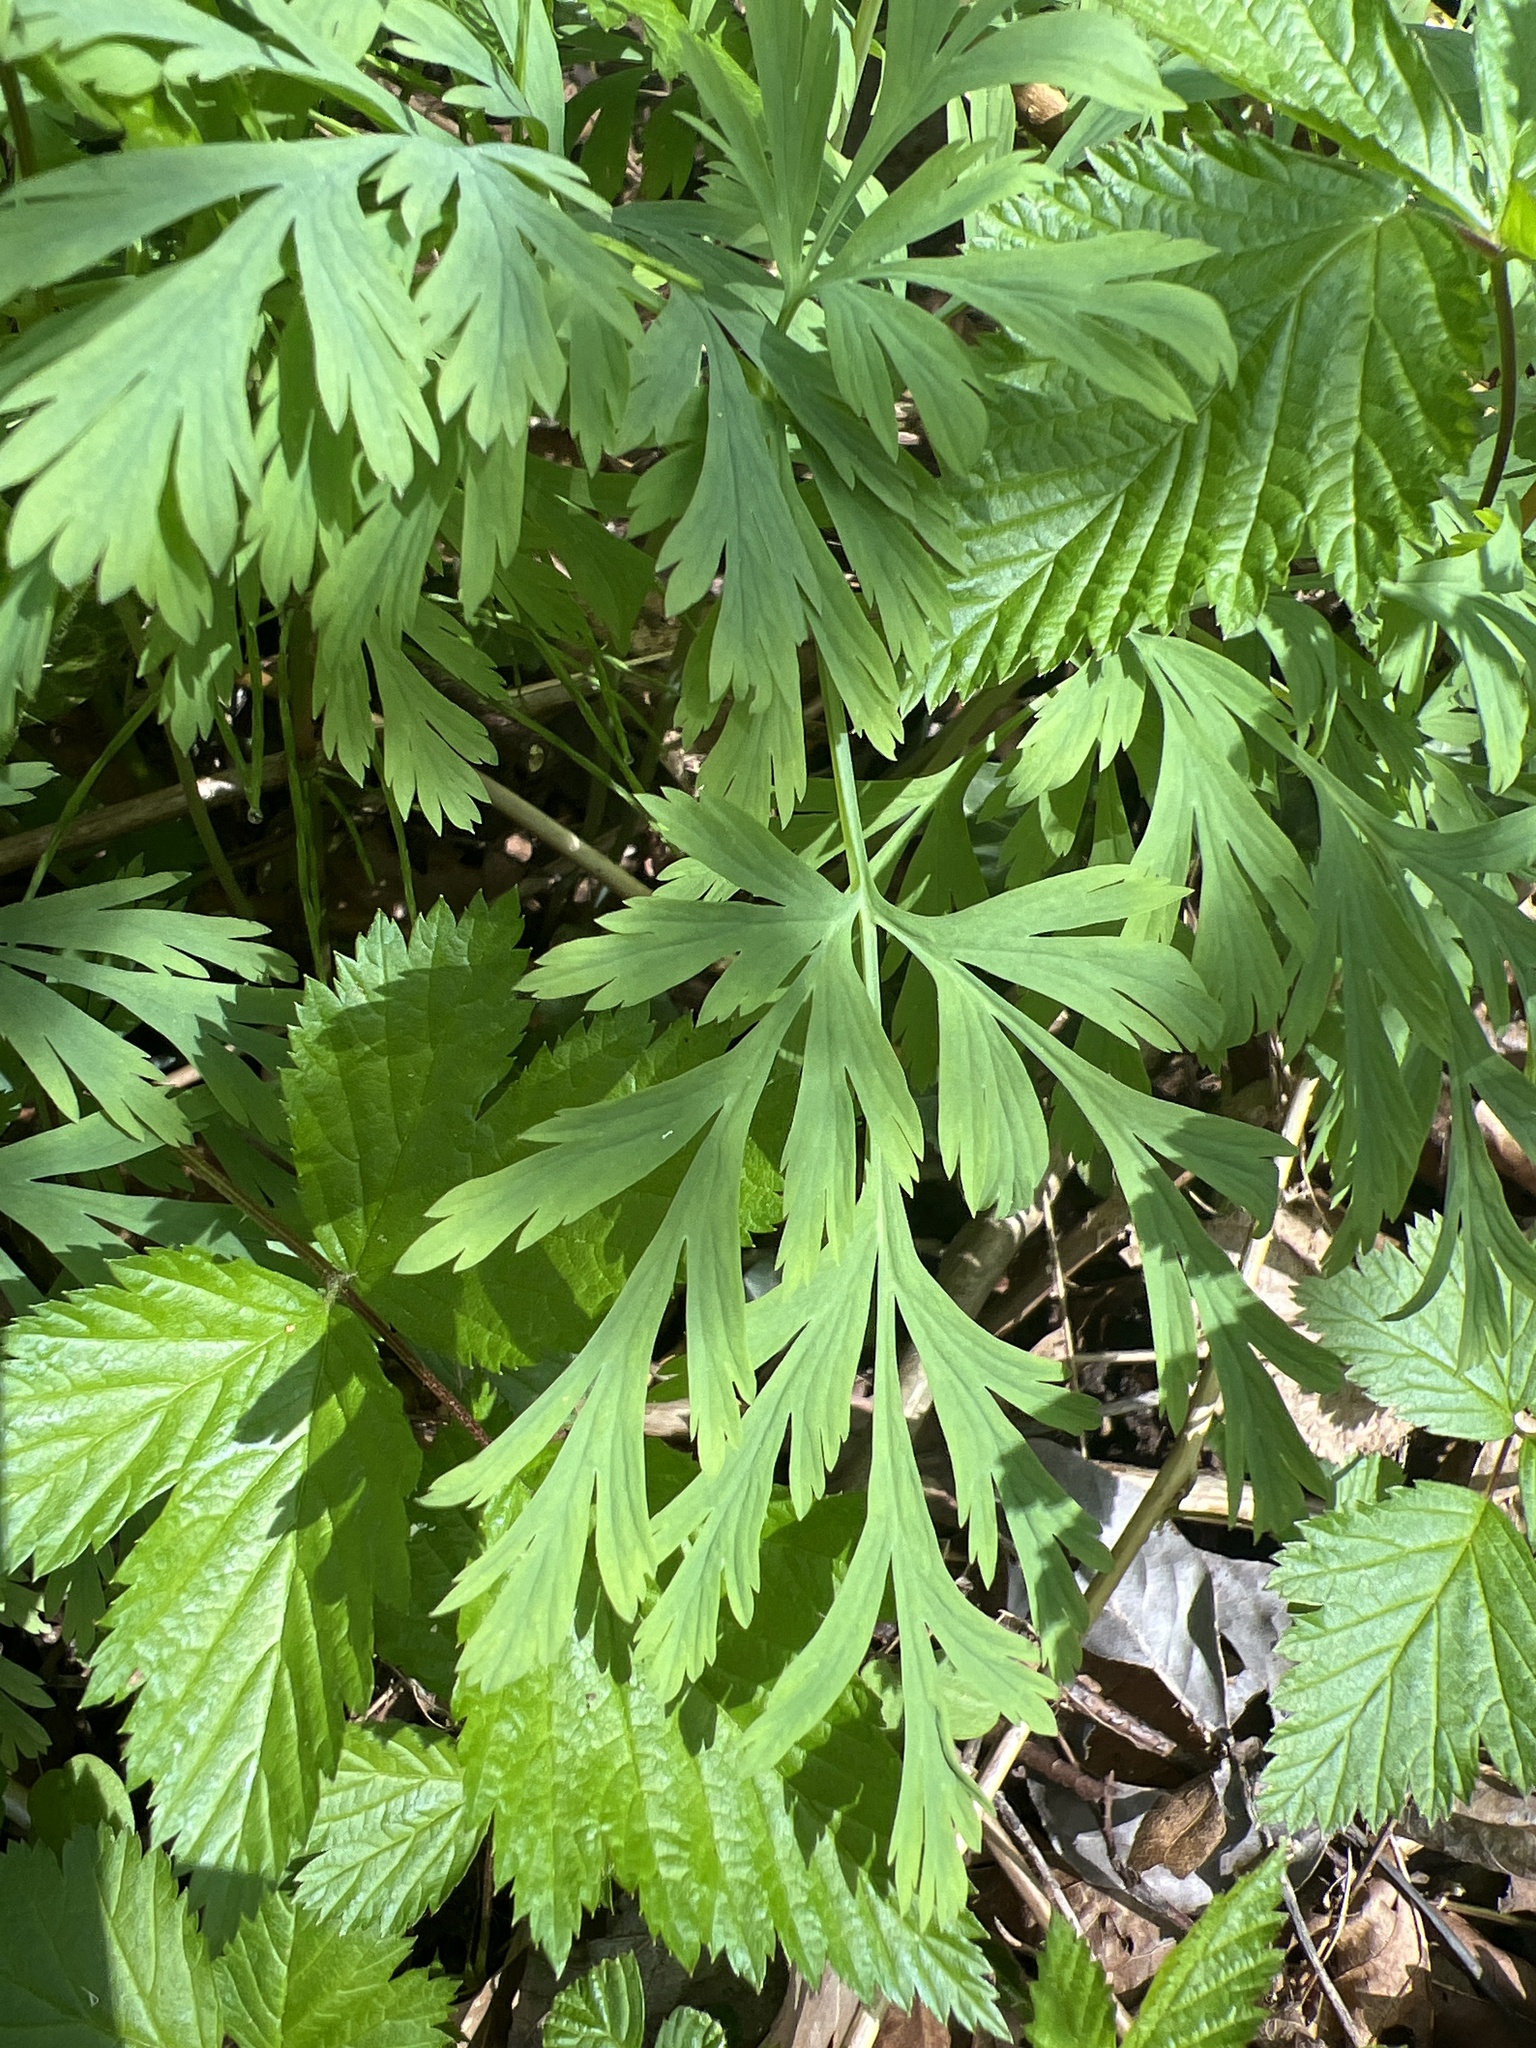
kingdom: Plantae
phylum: Tracheophyta
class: Magnoliopsida
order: Ranunculales
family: Papaveraceae
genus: Dicentra
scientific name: Dicentra formosa
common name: Bleeding-heart
